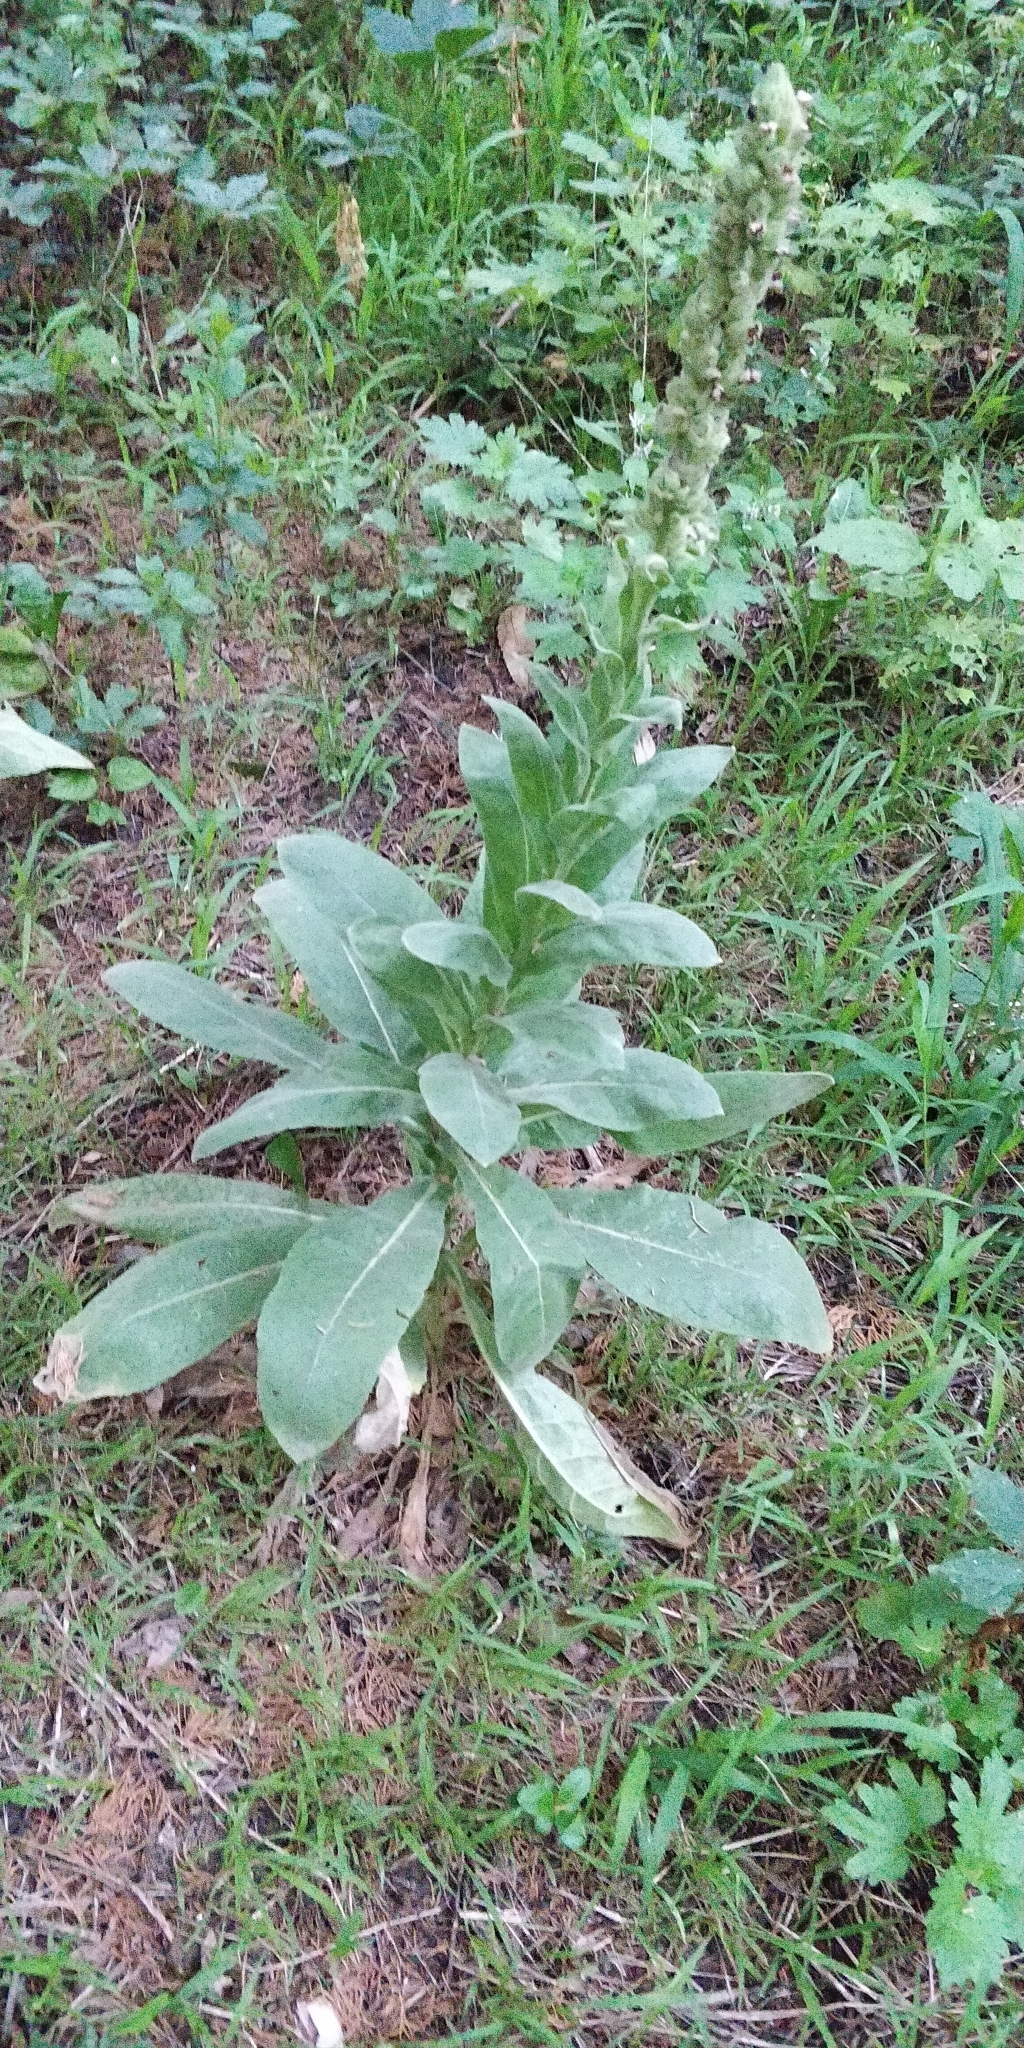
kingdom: Plantae
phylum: Tracheophyta
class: Magnoliopsida
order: Lamiales
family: Scrophulariaceae
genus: Verbascum
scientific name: Verbascum thapsus
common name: Common mullein
